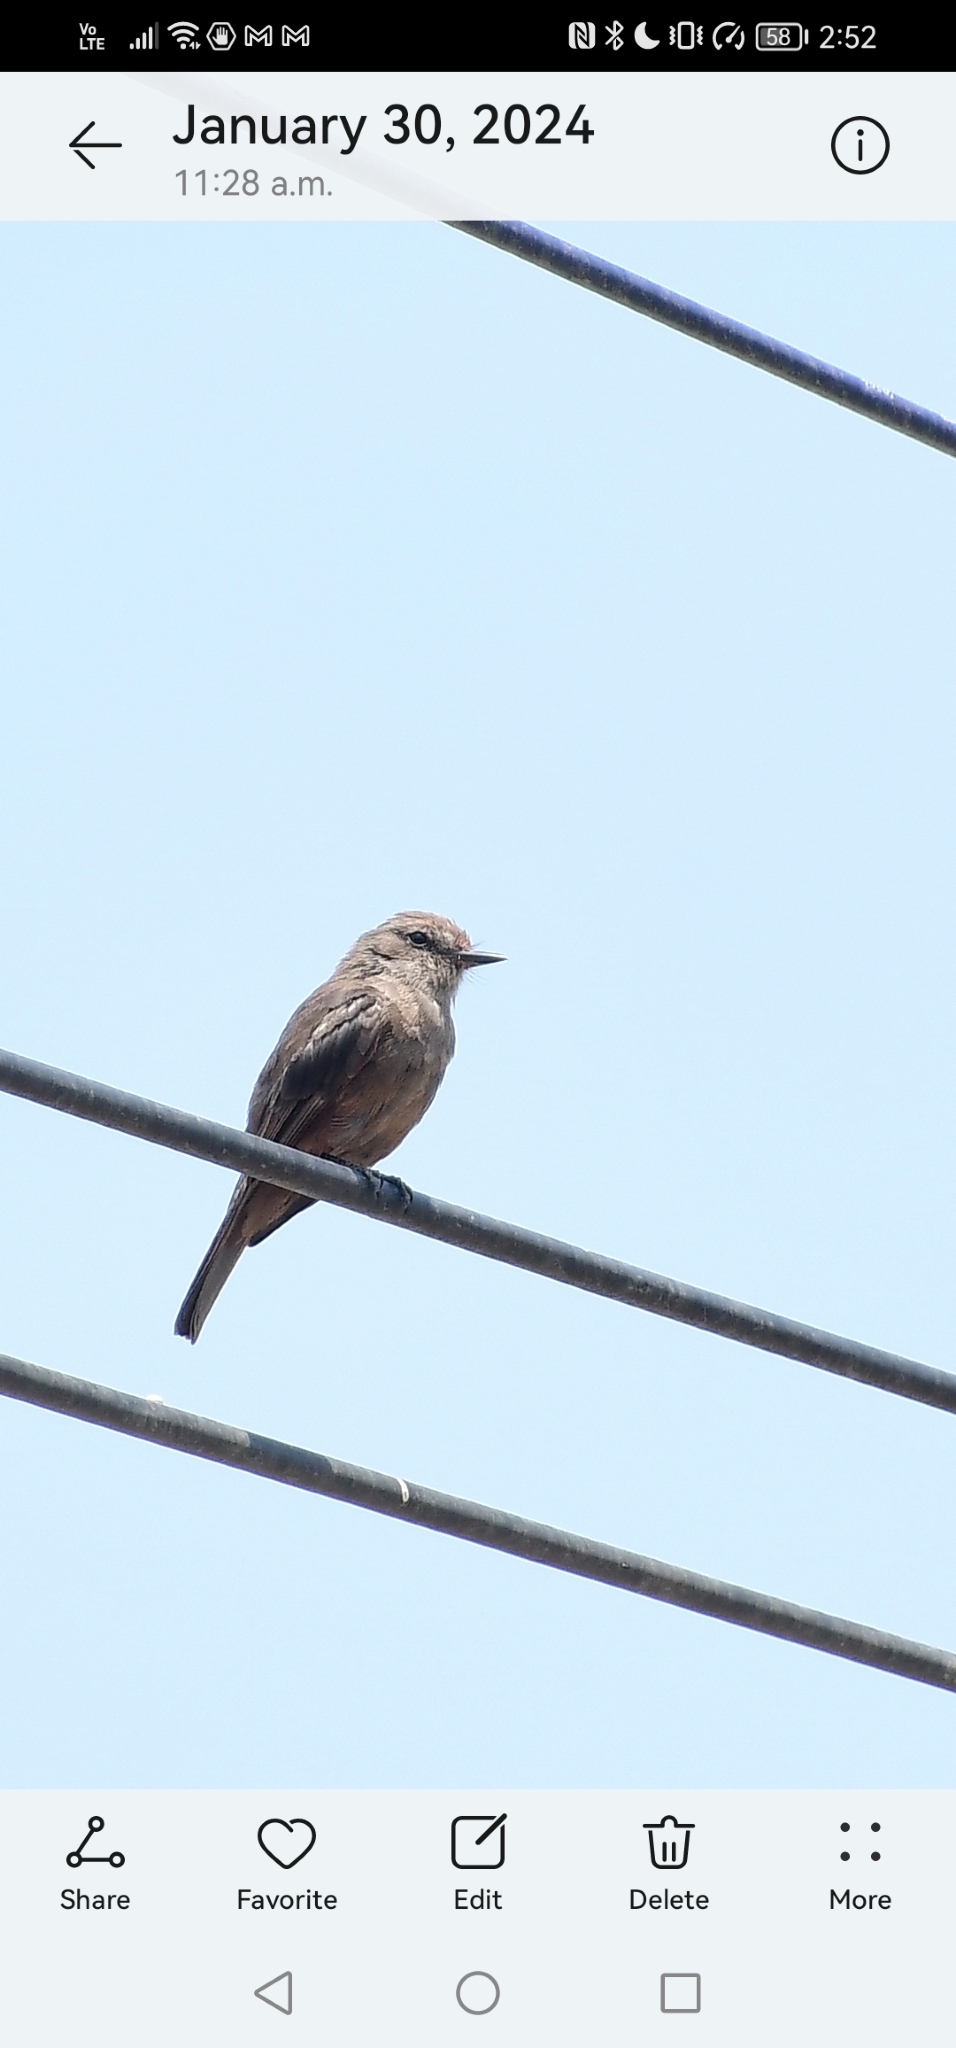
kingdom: Animalia
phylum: Chordata
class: Aves
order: Passeriformes
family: Tyrannidae
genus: Pyrocephalus
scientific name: Pyrocephalus rubinus
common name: Vermilion flycatcher
